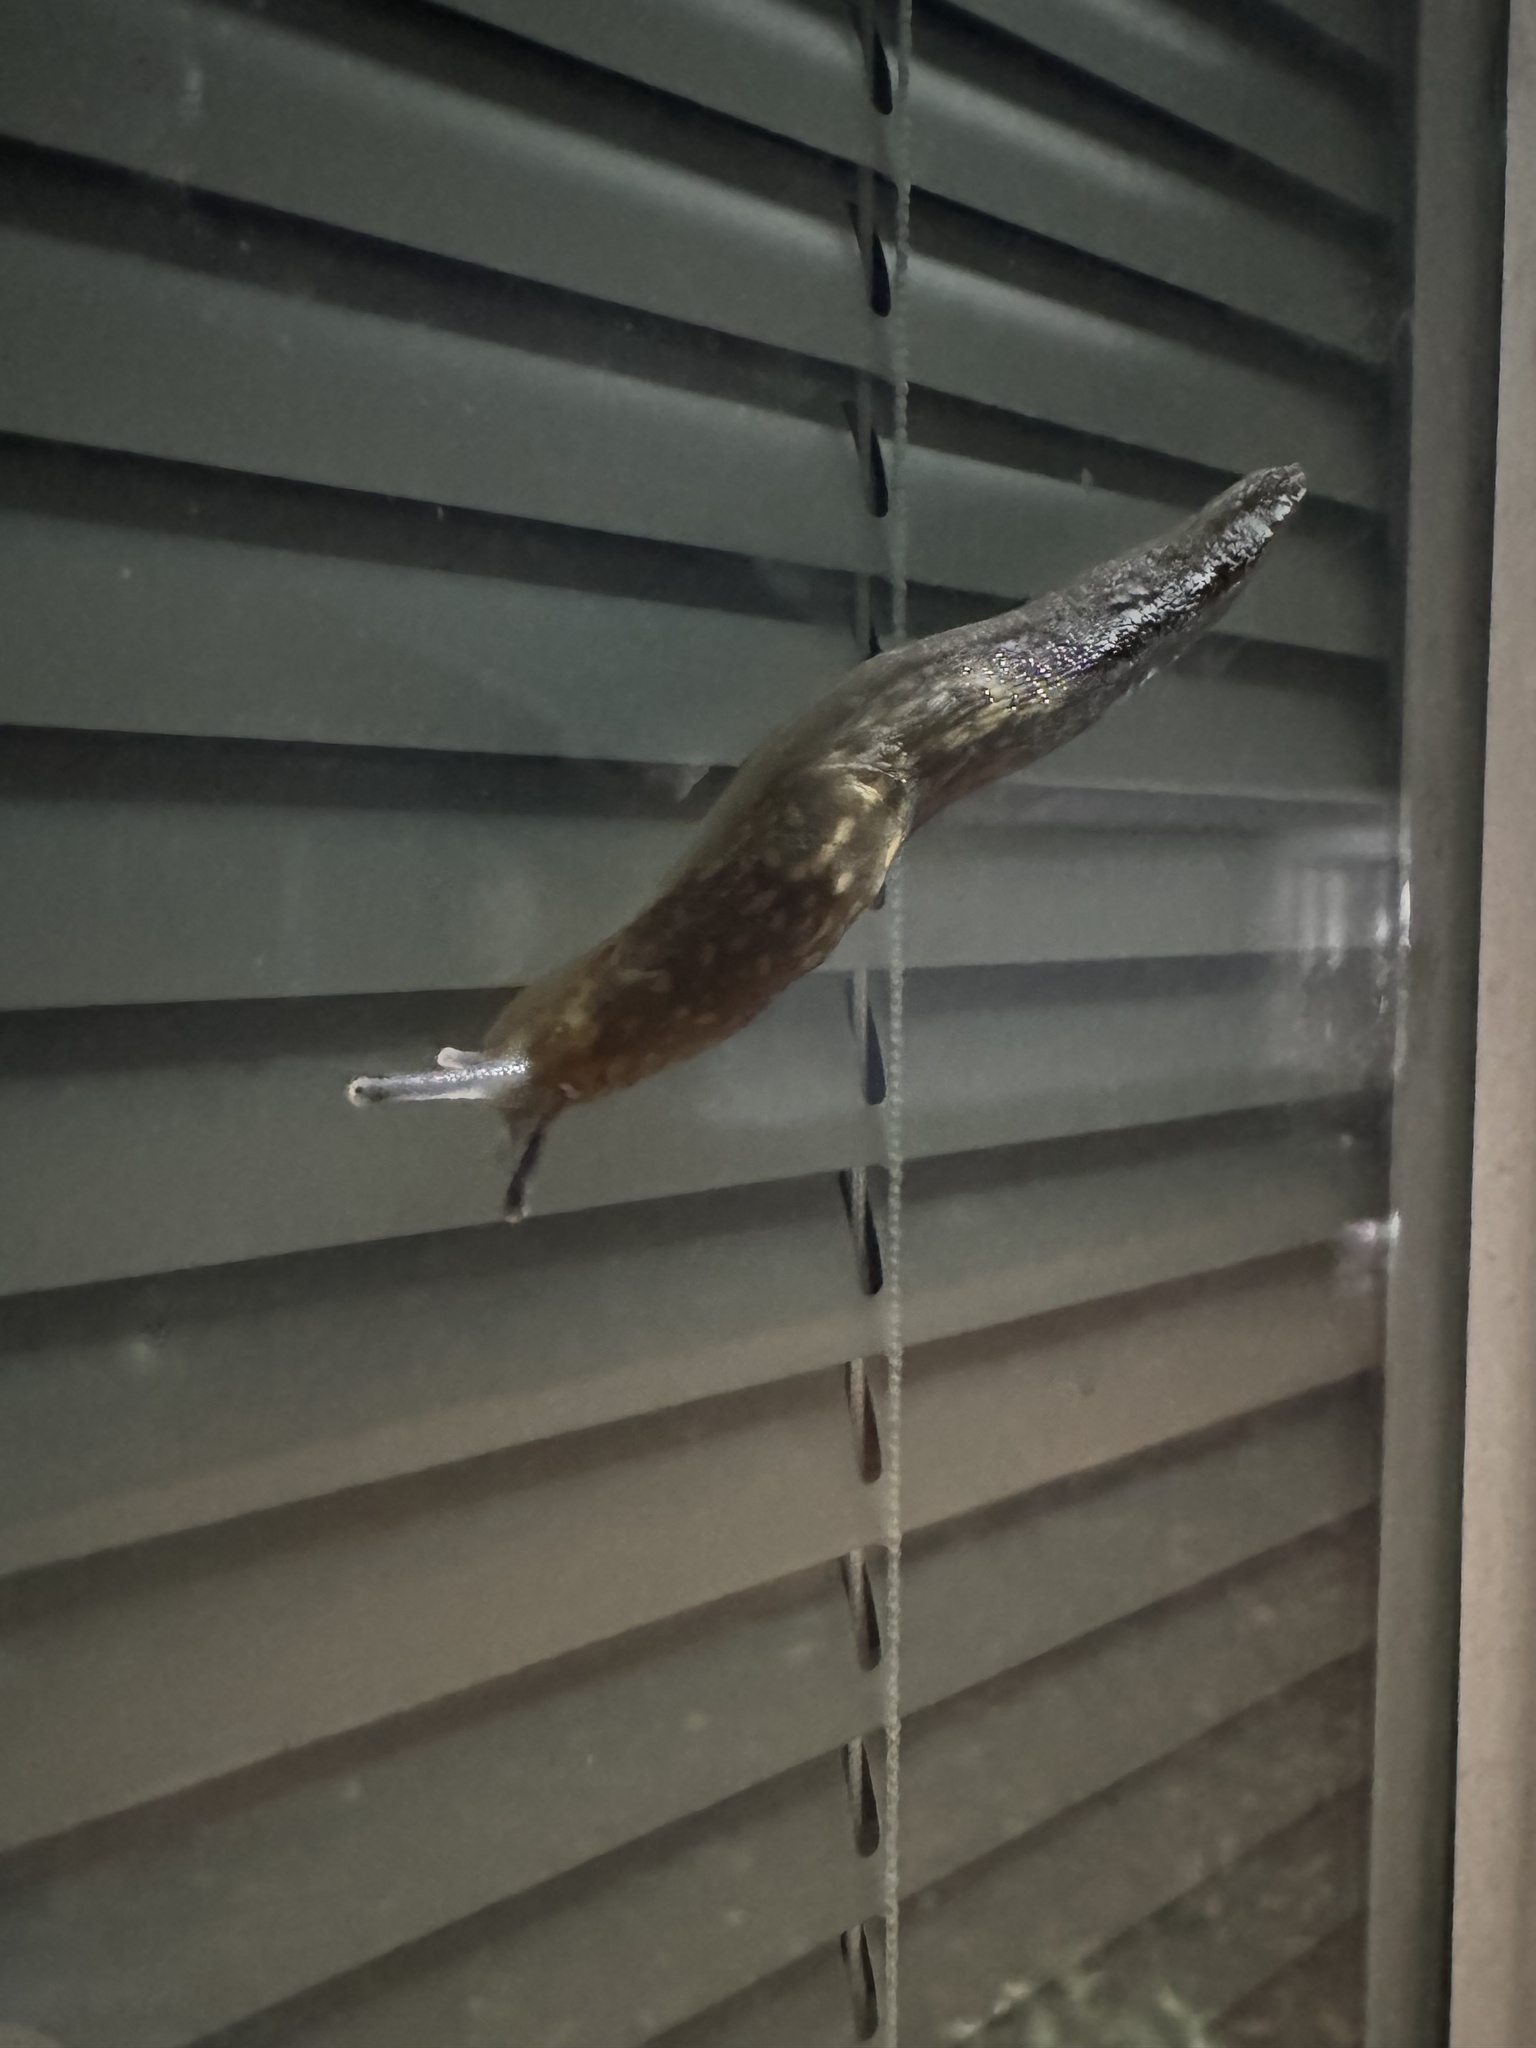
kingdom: Animalia
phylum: Mollusca
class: Gastropoda
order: Stylommatophora
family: Limacidae
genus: Limacus
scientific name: Limacus flavus
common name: Yellow gardenslug
